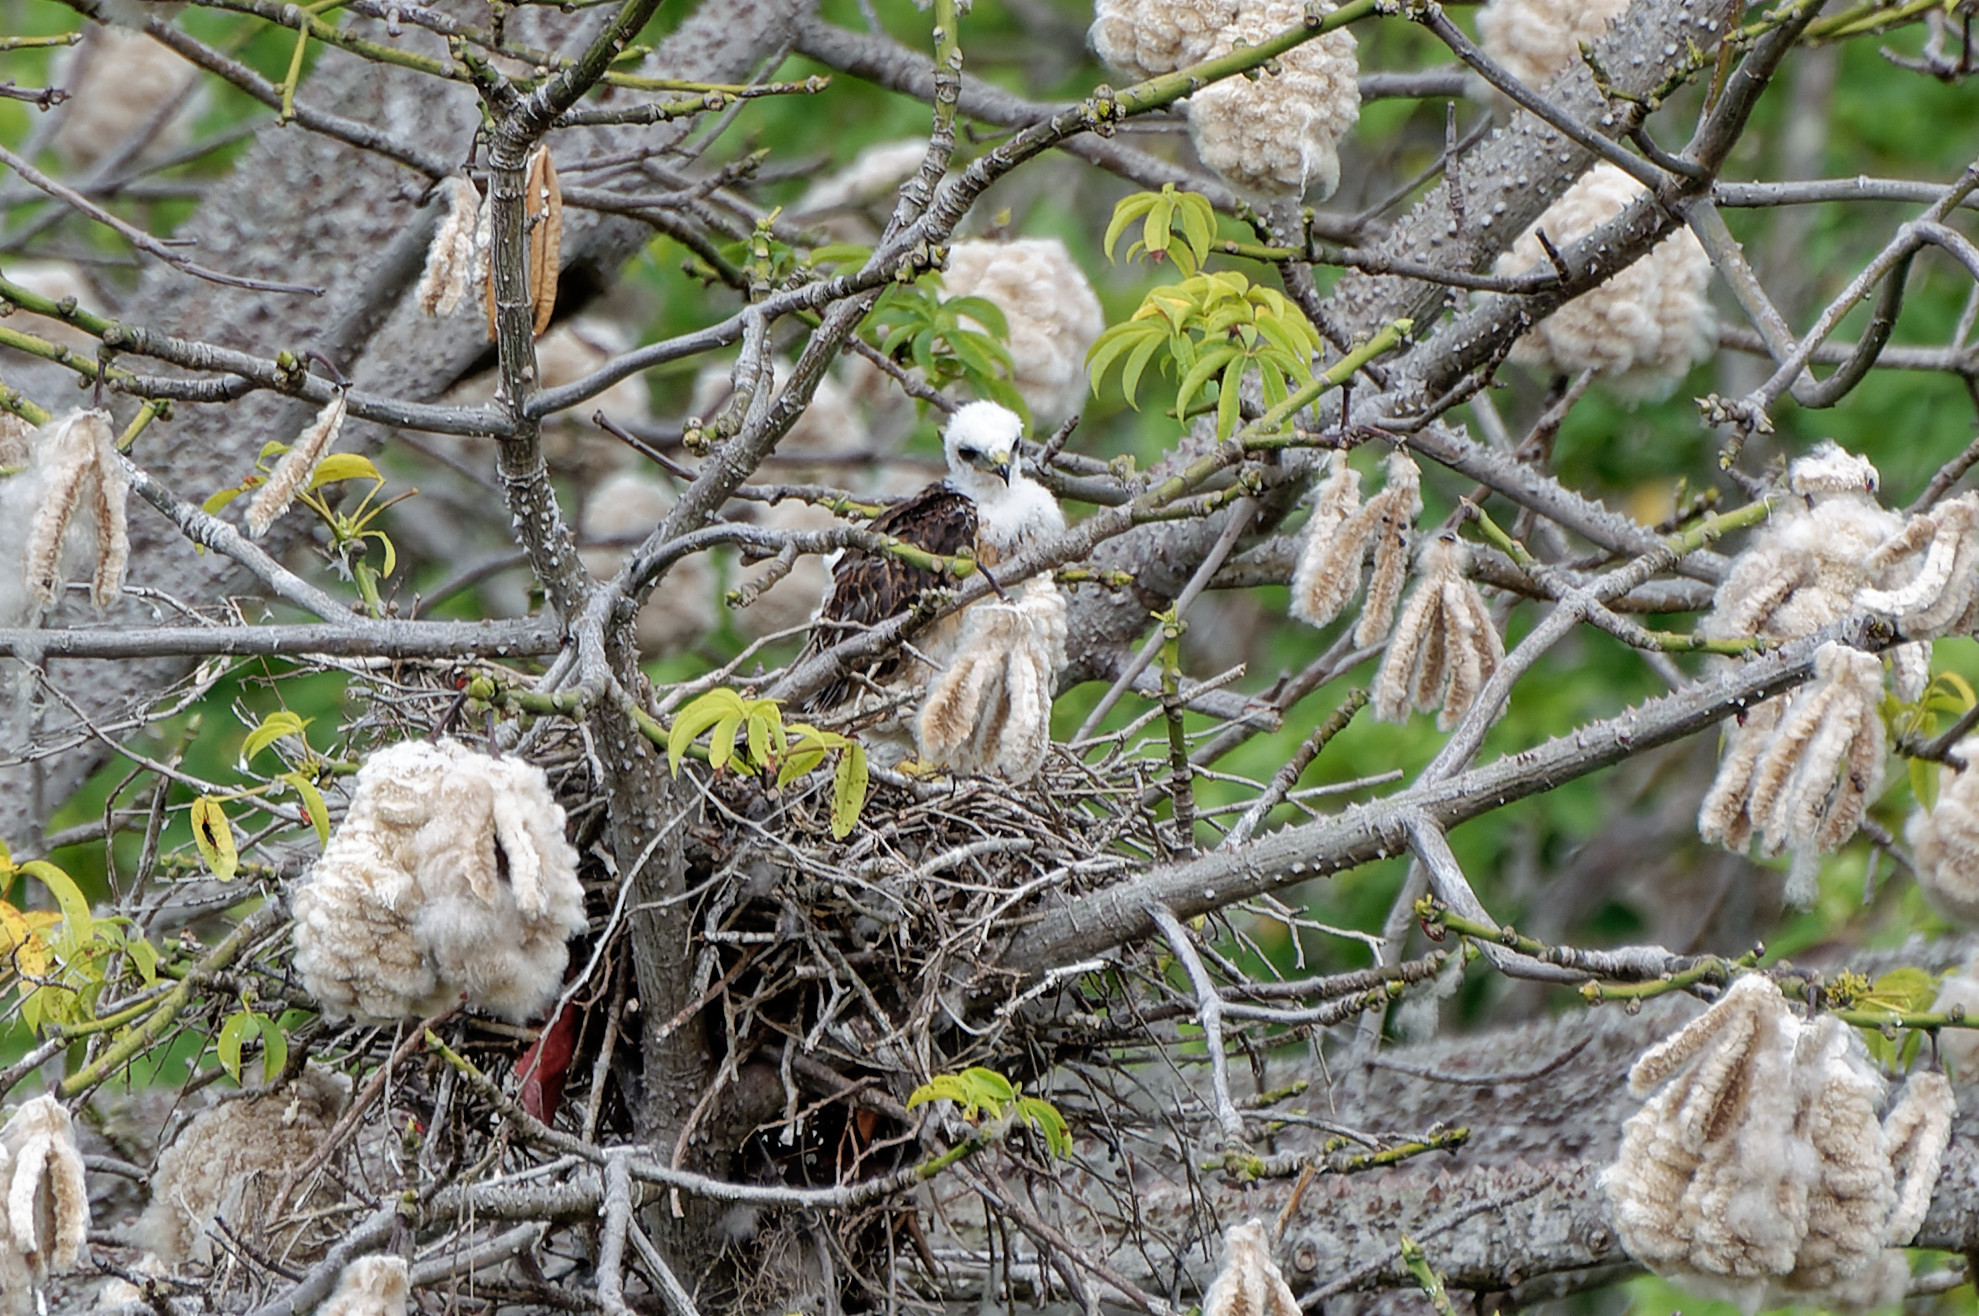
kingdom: Animalia
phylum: Chordata
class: Aves
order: Accipitriformes
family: Accipitridae
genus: Buteo
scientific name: Buteo platypterus
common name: Broad-winged hawk
